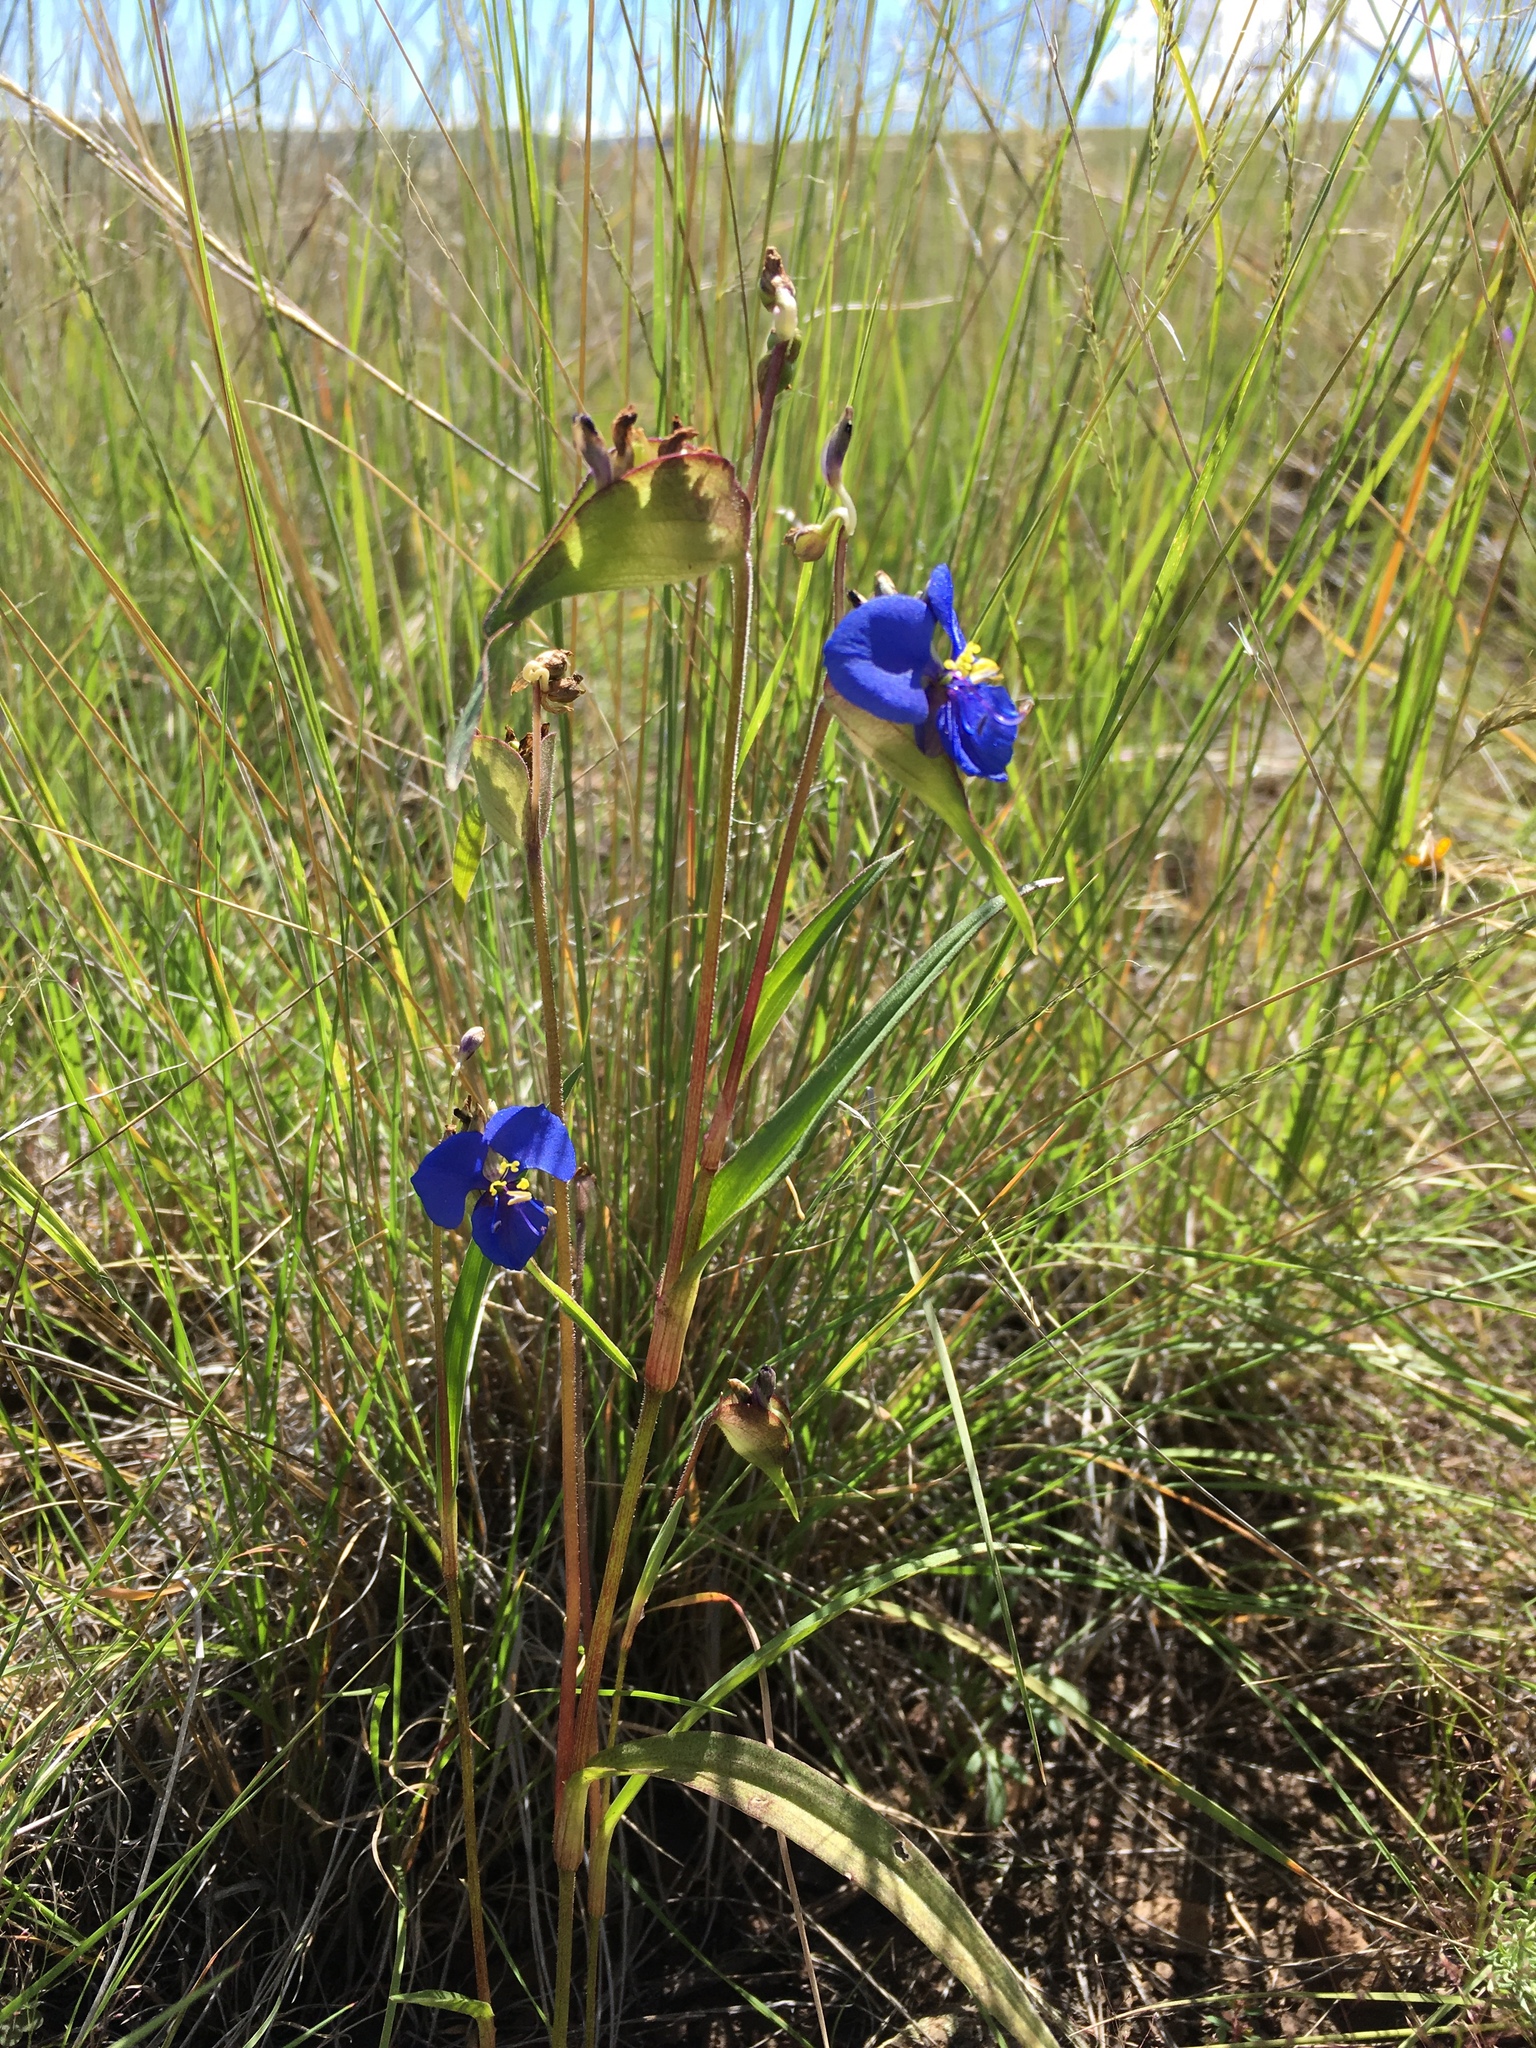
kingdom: Plantae
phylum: Tracheophyta
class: Liliopsida
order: Commelinales
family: Commelinaceae
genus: Commelina
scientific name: Commelina dianthifolia
